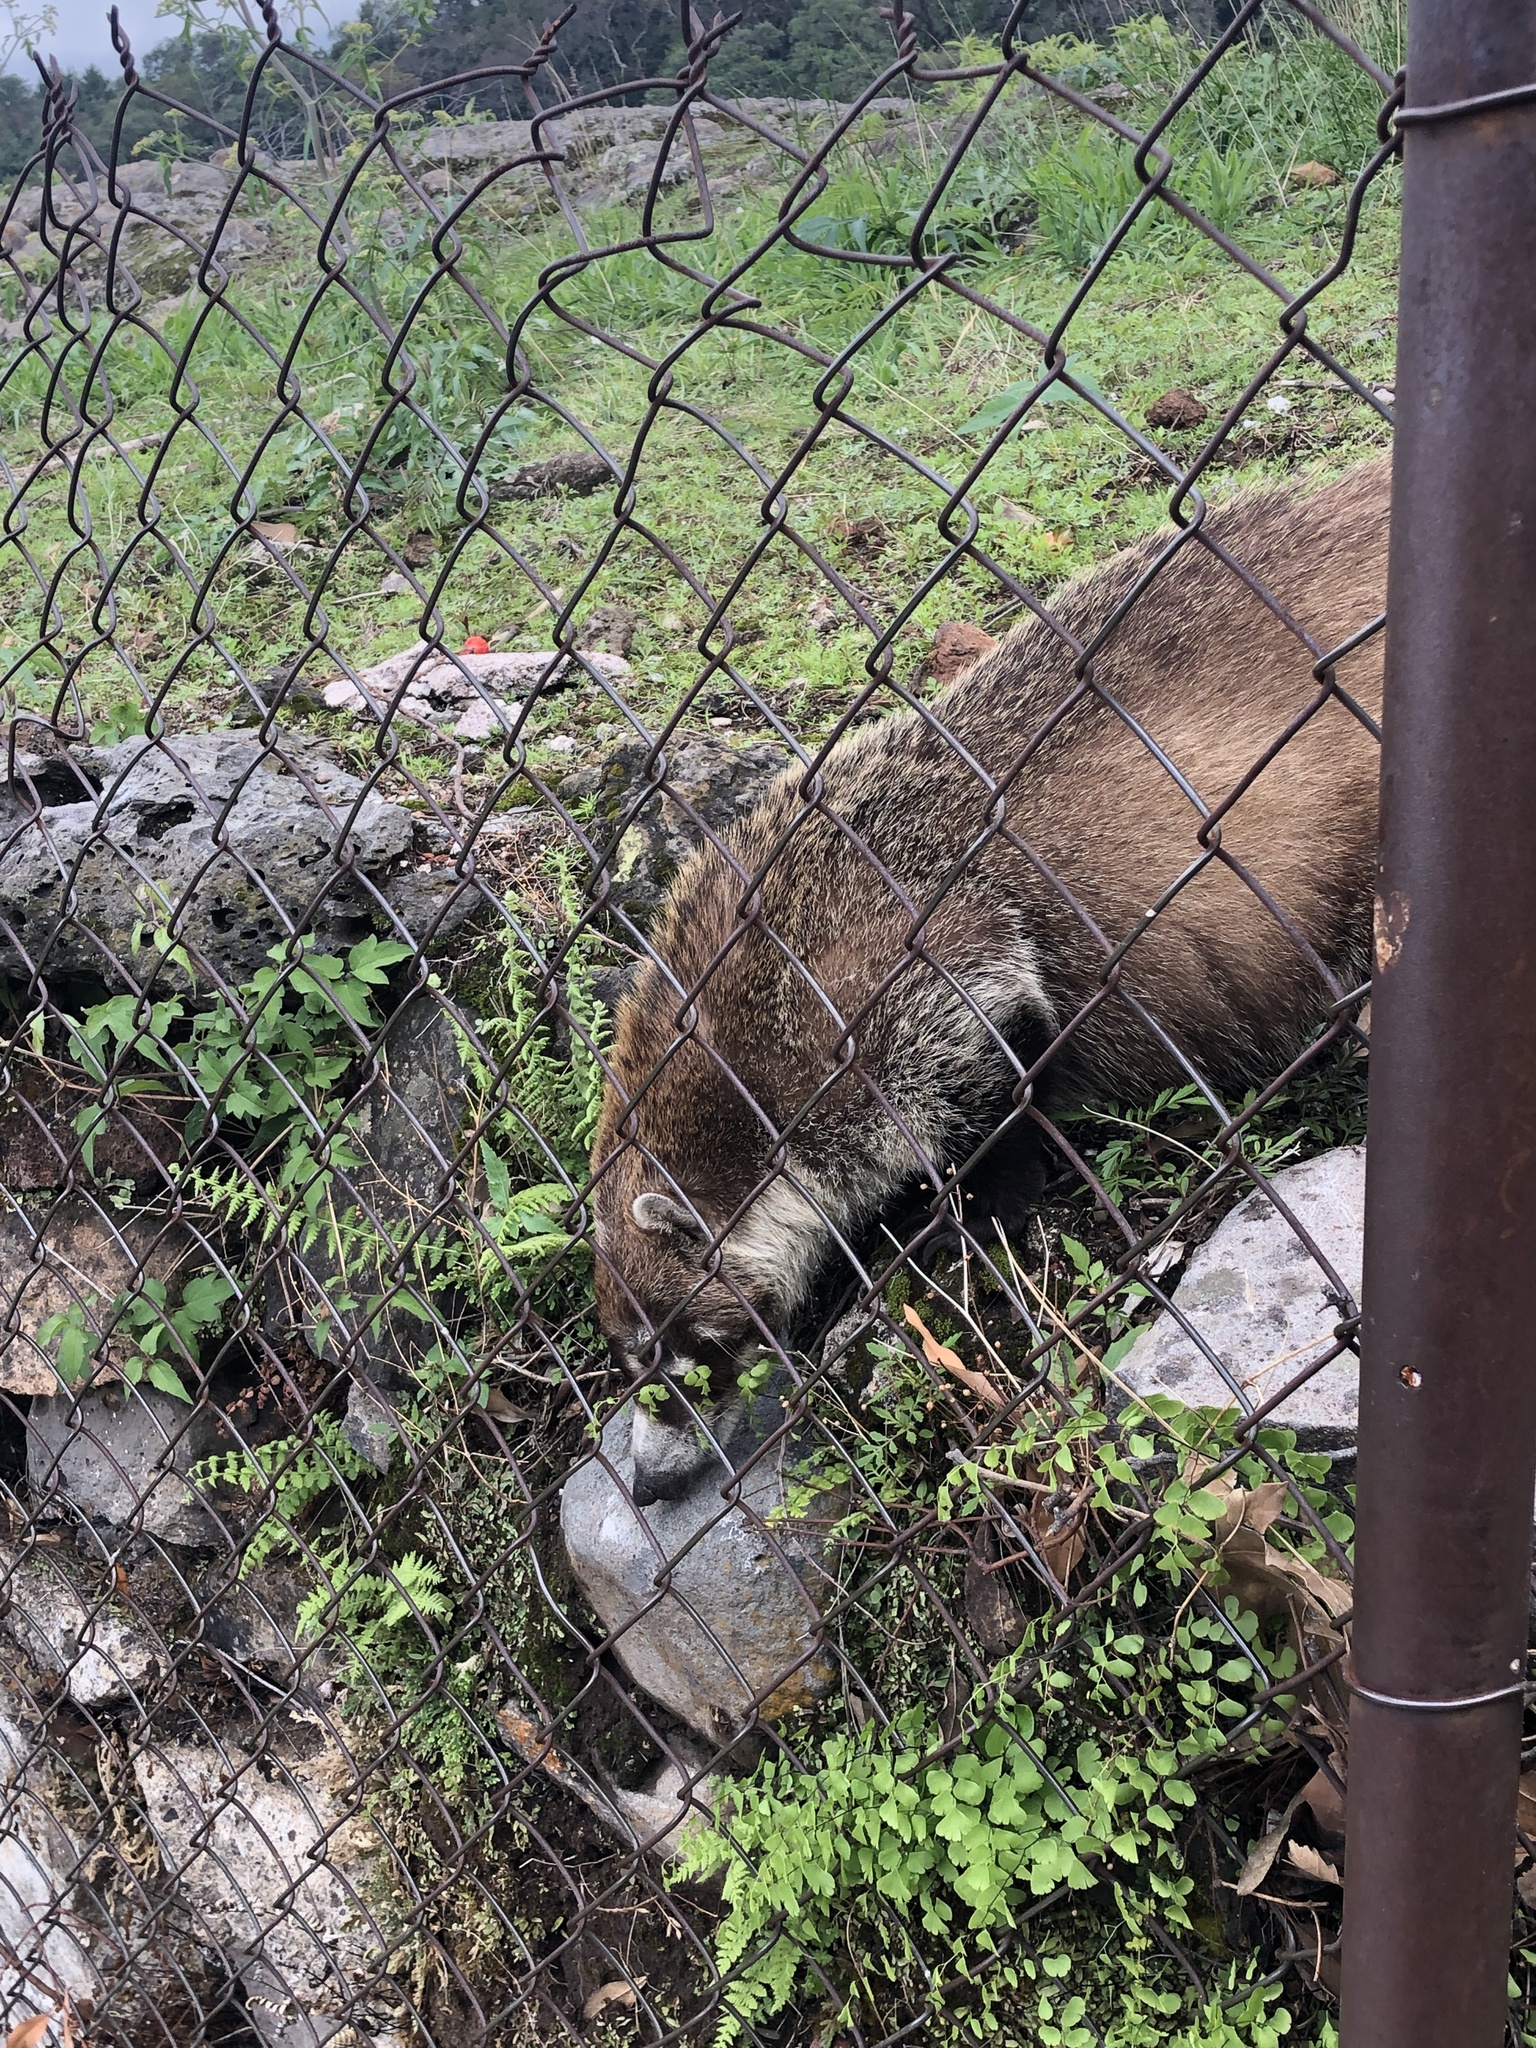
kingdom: Animalia
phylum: Chordata
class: Mammalia
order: Carnivora
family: Procyonidae
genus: Nasua
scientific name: Nasua narica
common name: White-nosed coati
